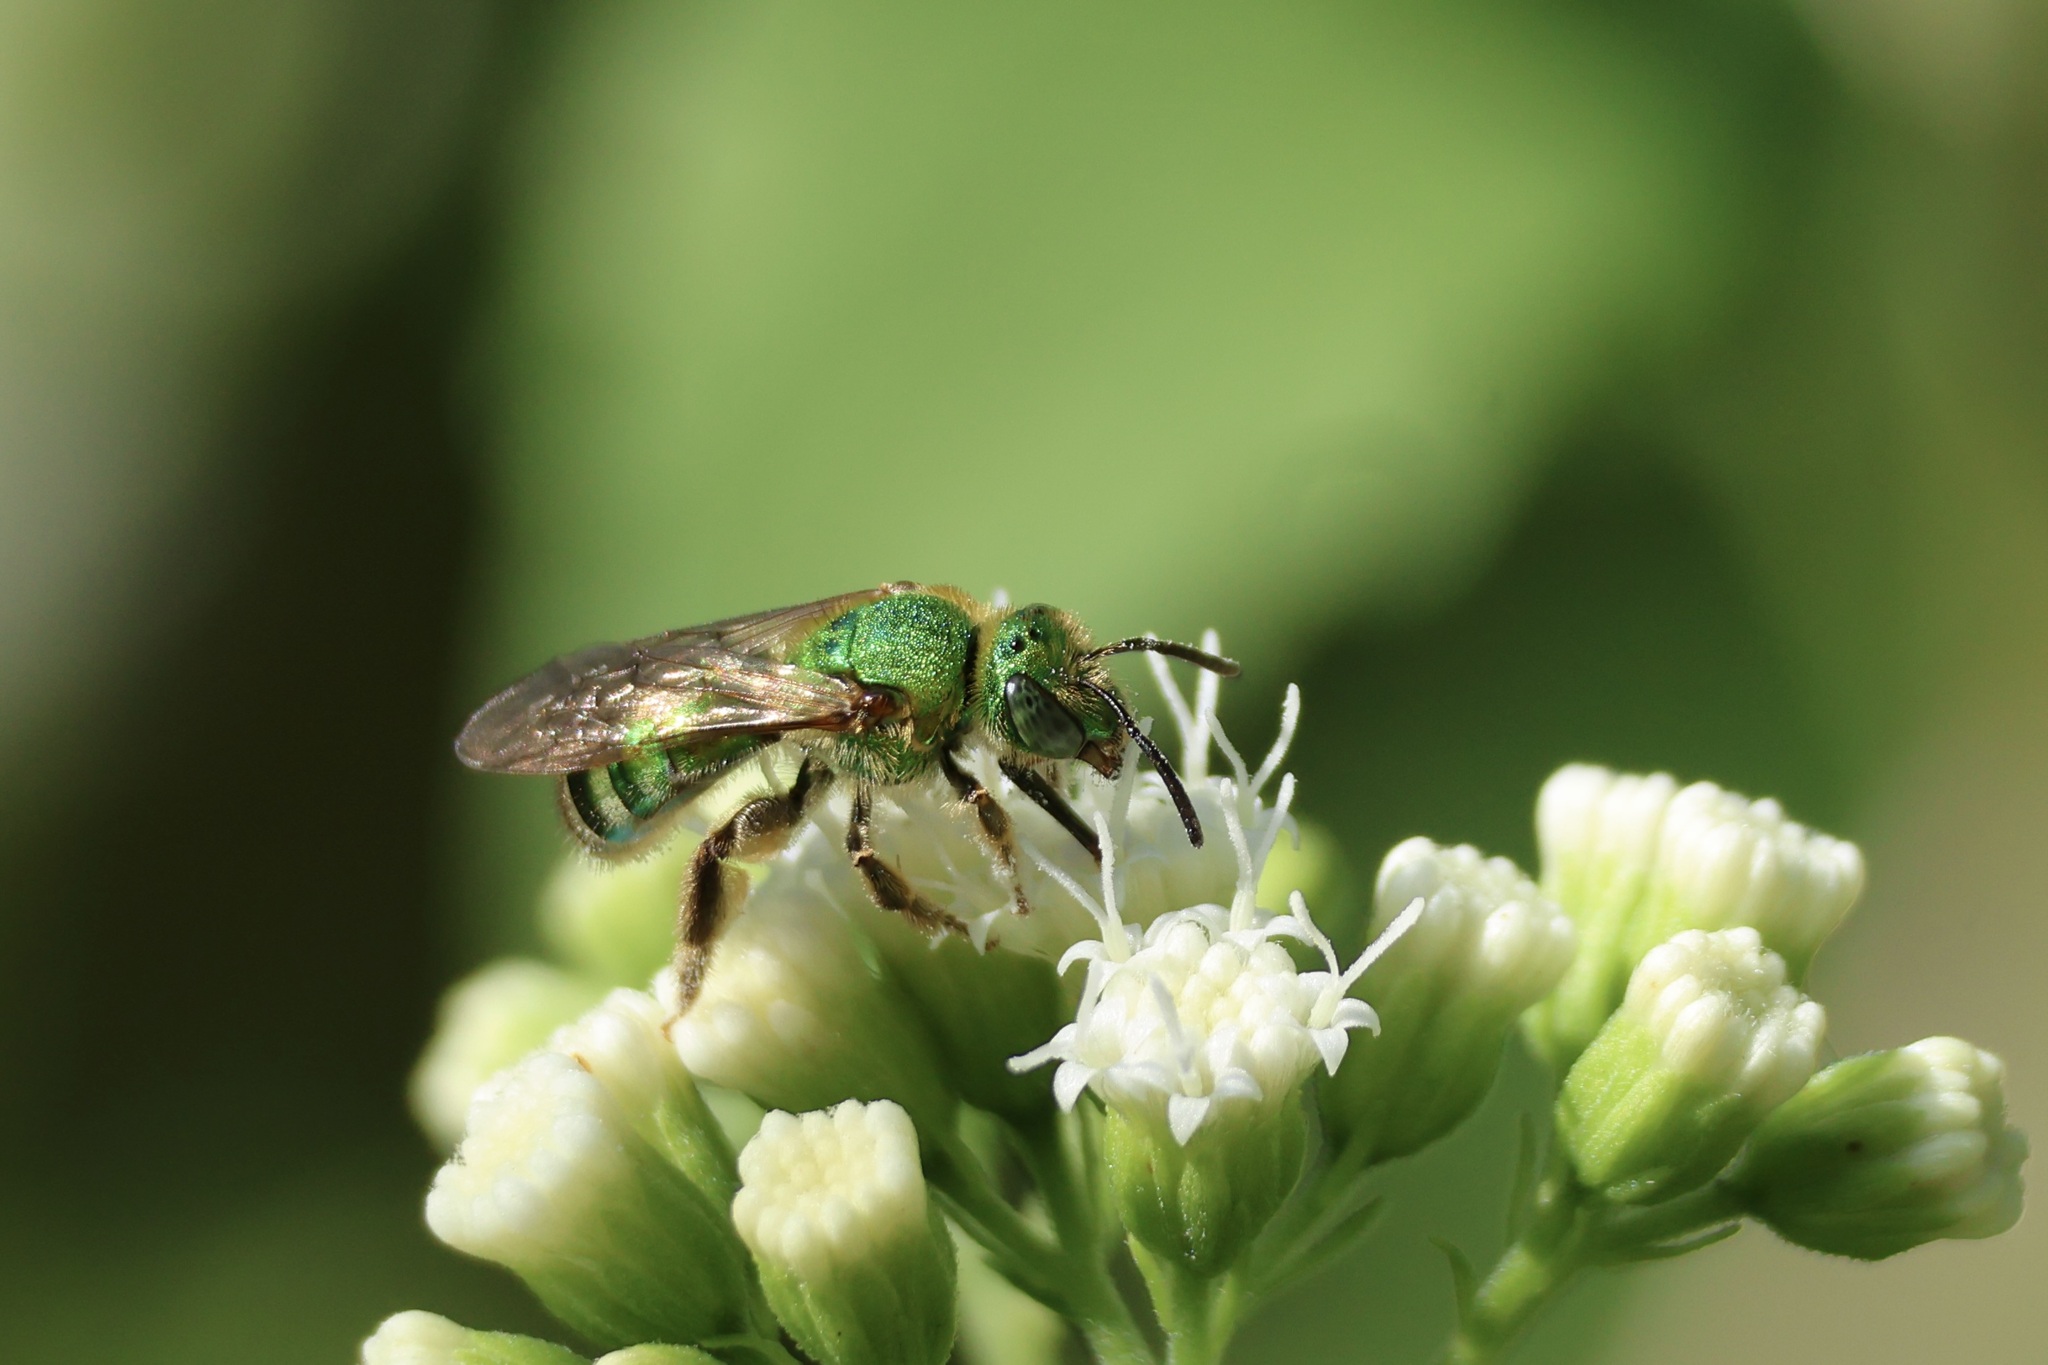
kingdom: Animalia
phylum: Arthropoda
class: Insecta
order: Hymenoptera
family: Halictidae
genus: Agapostemon
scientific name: Agapostemon sericeus
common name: Silky striped sweat bee
